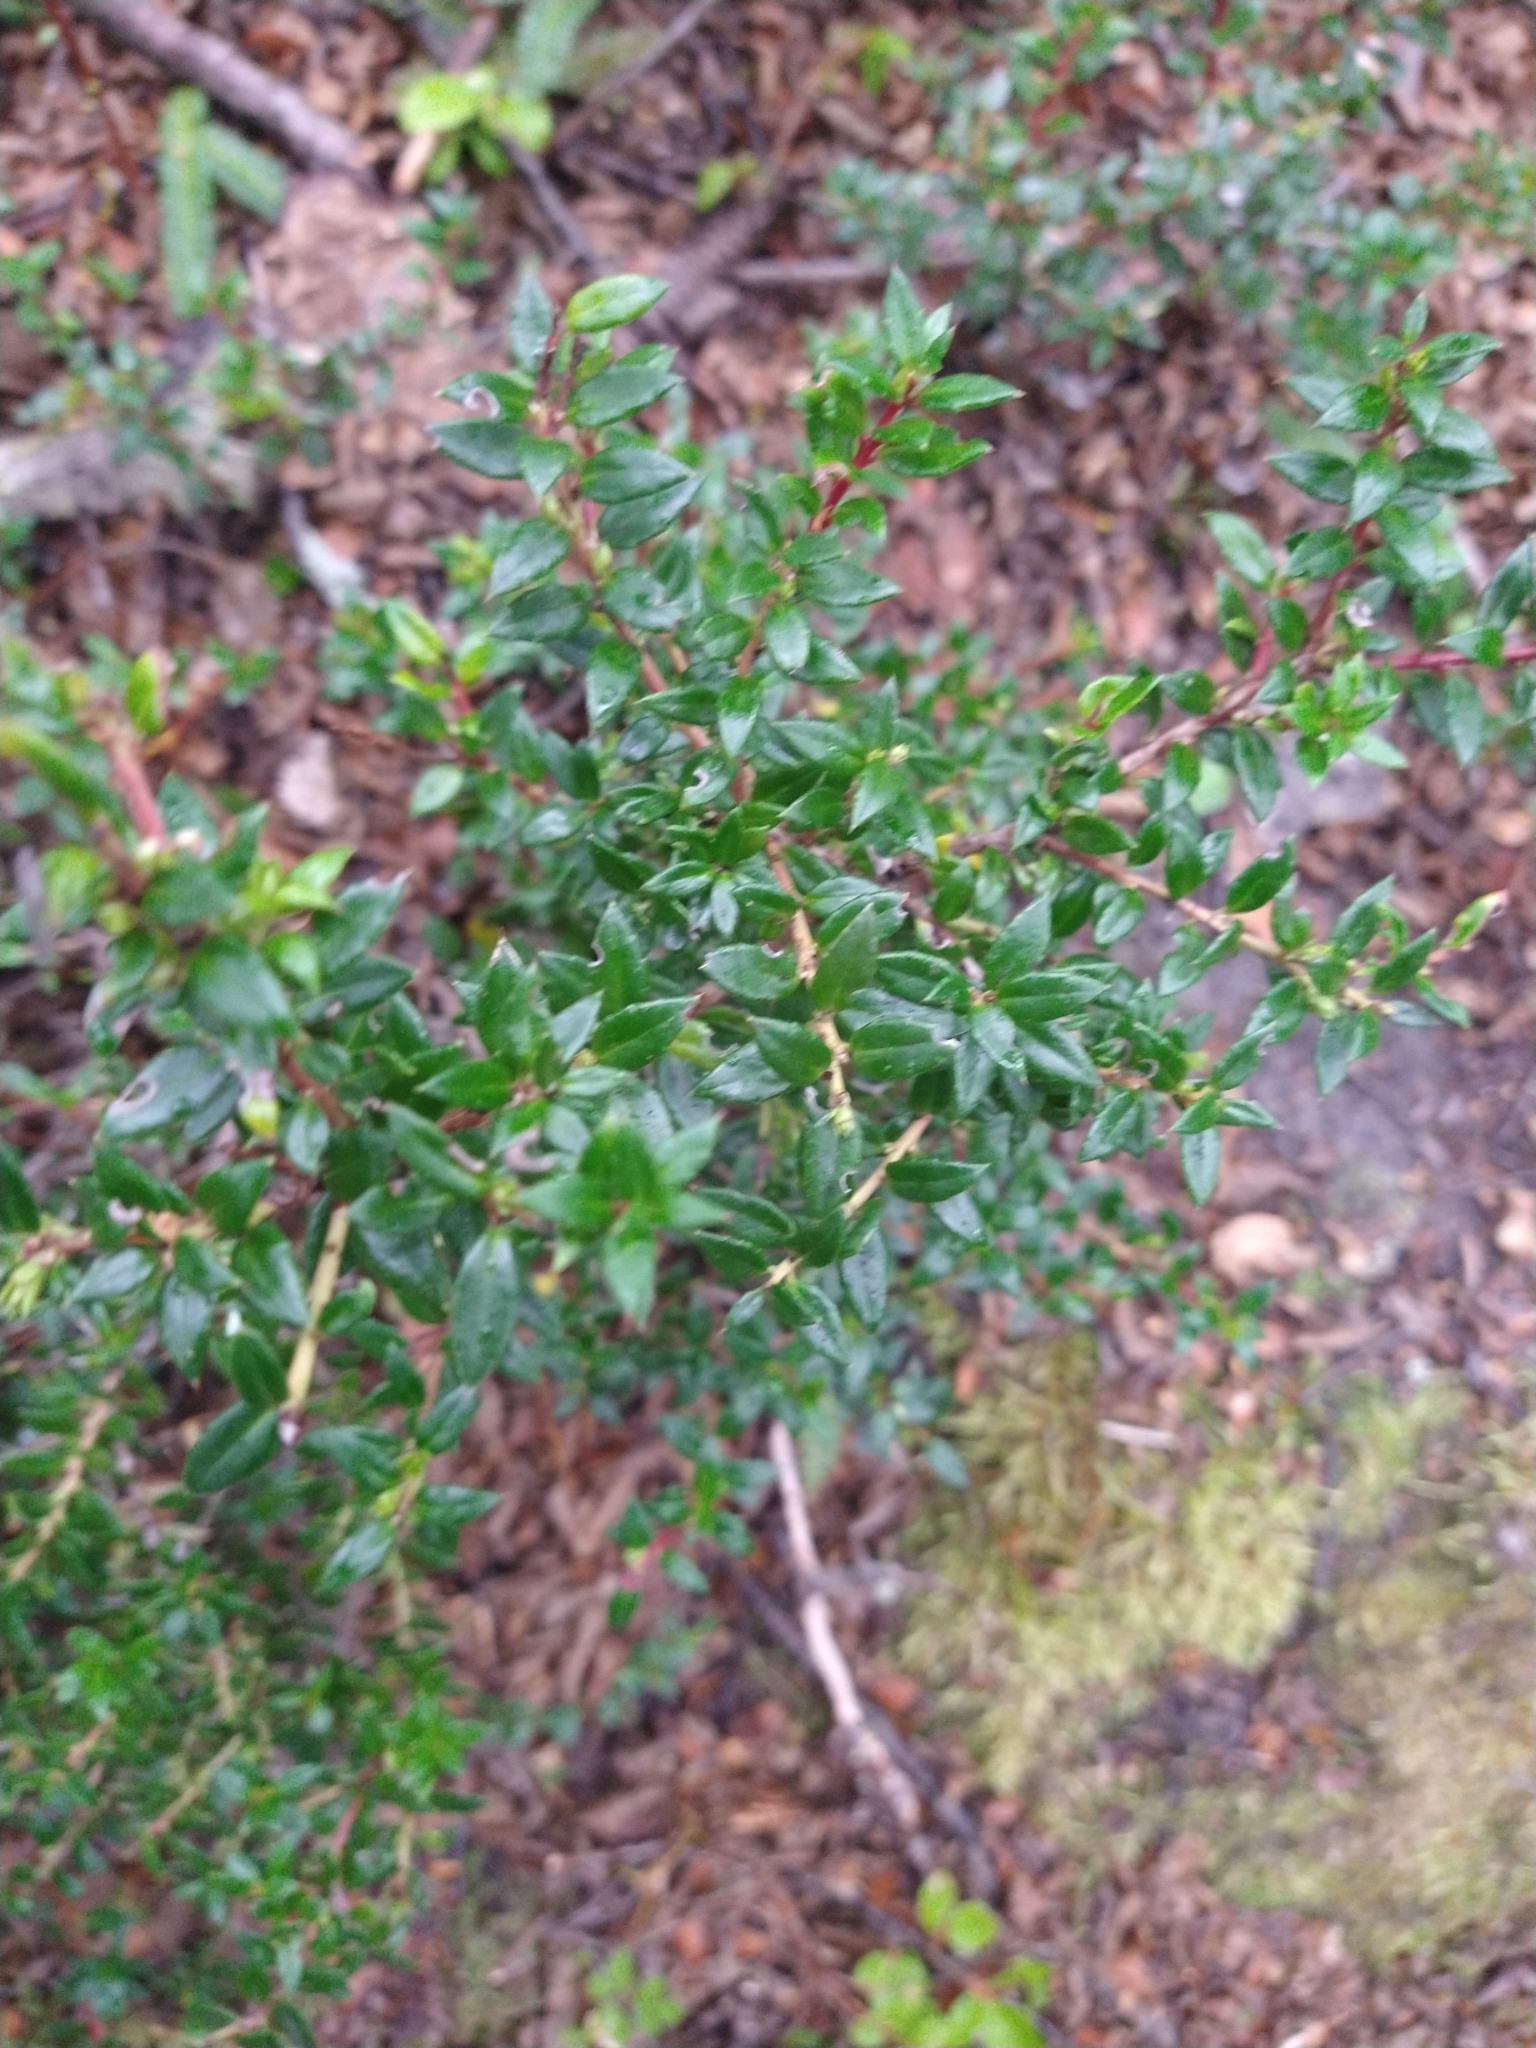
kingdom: Plantae
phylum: Tracheophyta
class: Magnoliopsida
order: Ericales
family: Ericaceae
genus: Gaultheria
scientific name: Gaultheria mucronata
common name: Prickly heath
